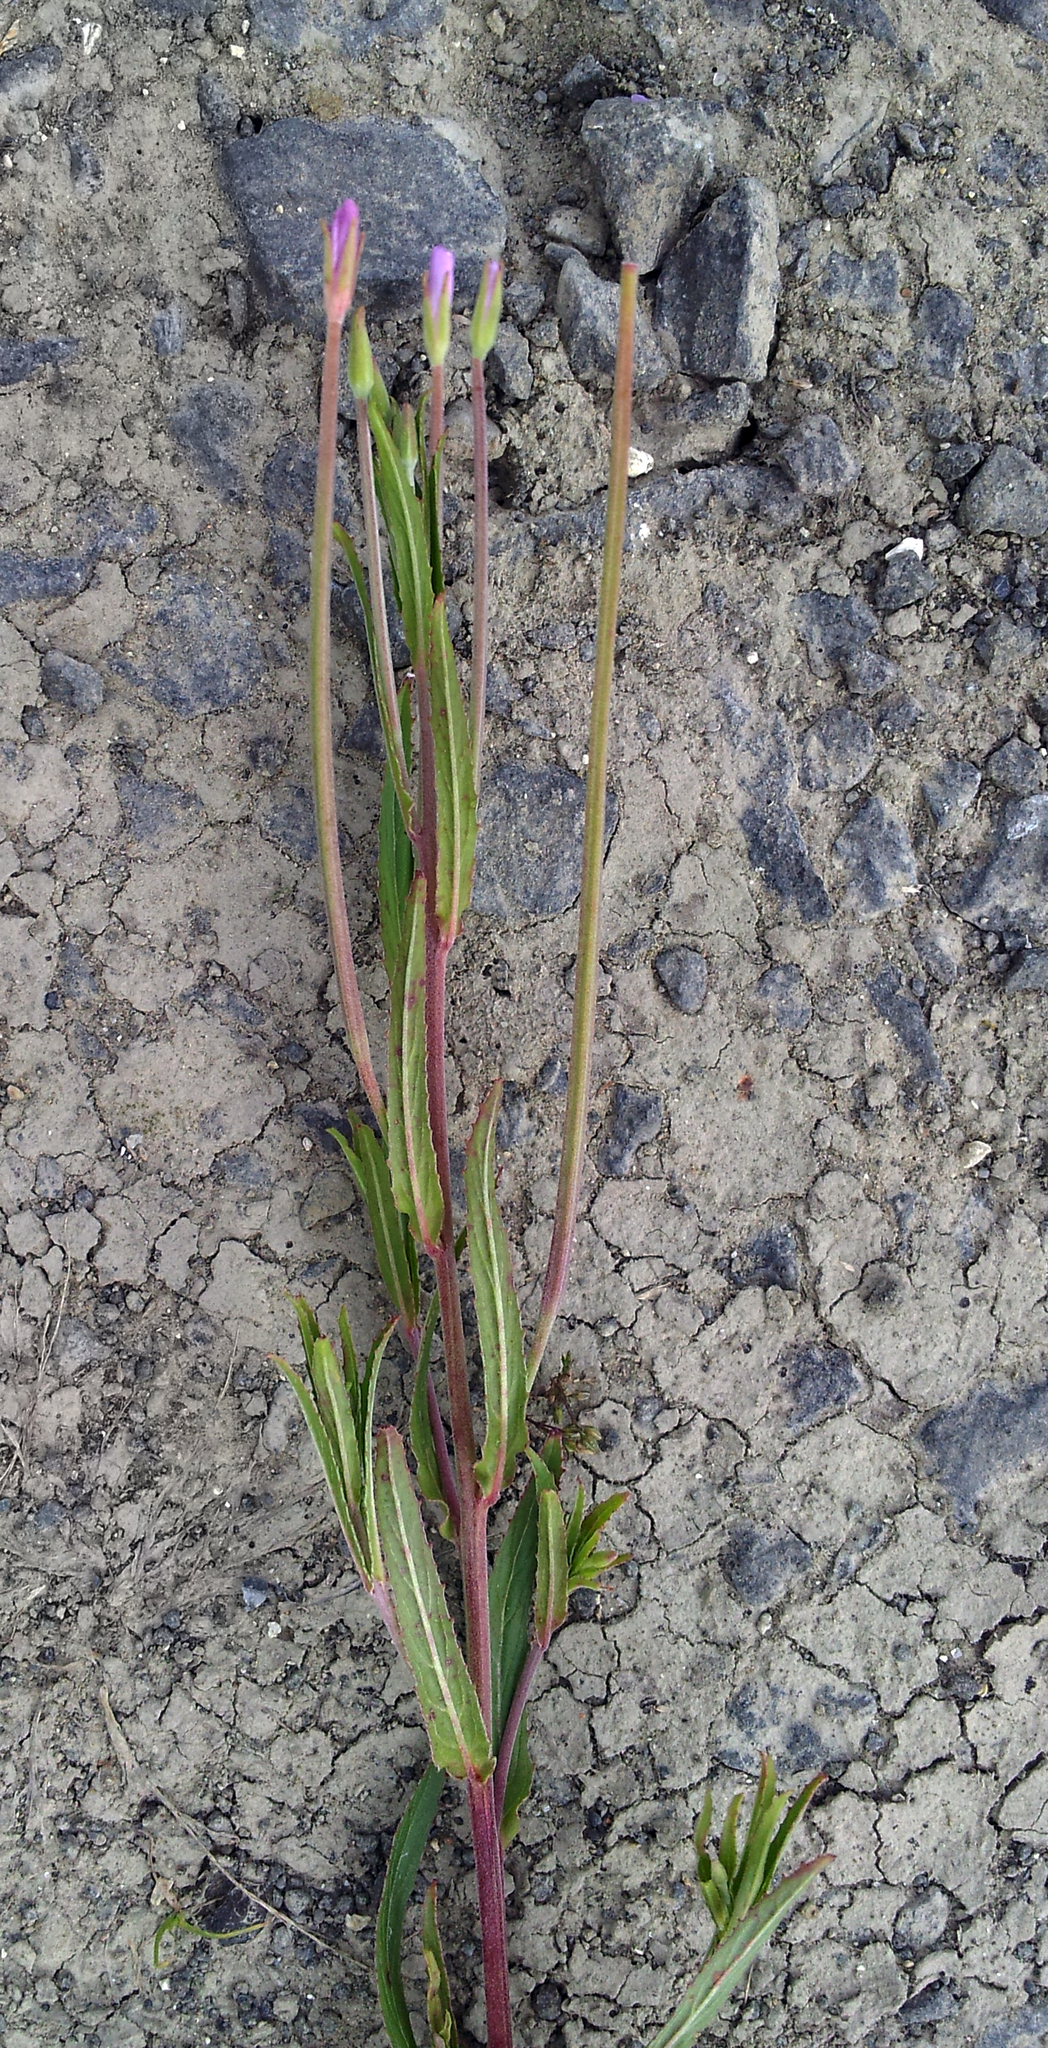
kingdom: Plantae
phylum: Tracheophyta
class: Magnoliopsida
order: Myrtales
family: Onagraceae
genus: Epilobium
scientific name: Epilobium tetragonum
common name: Square-stemmed willowherb
